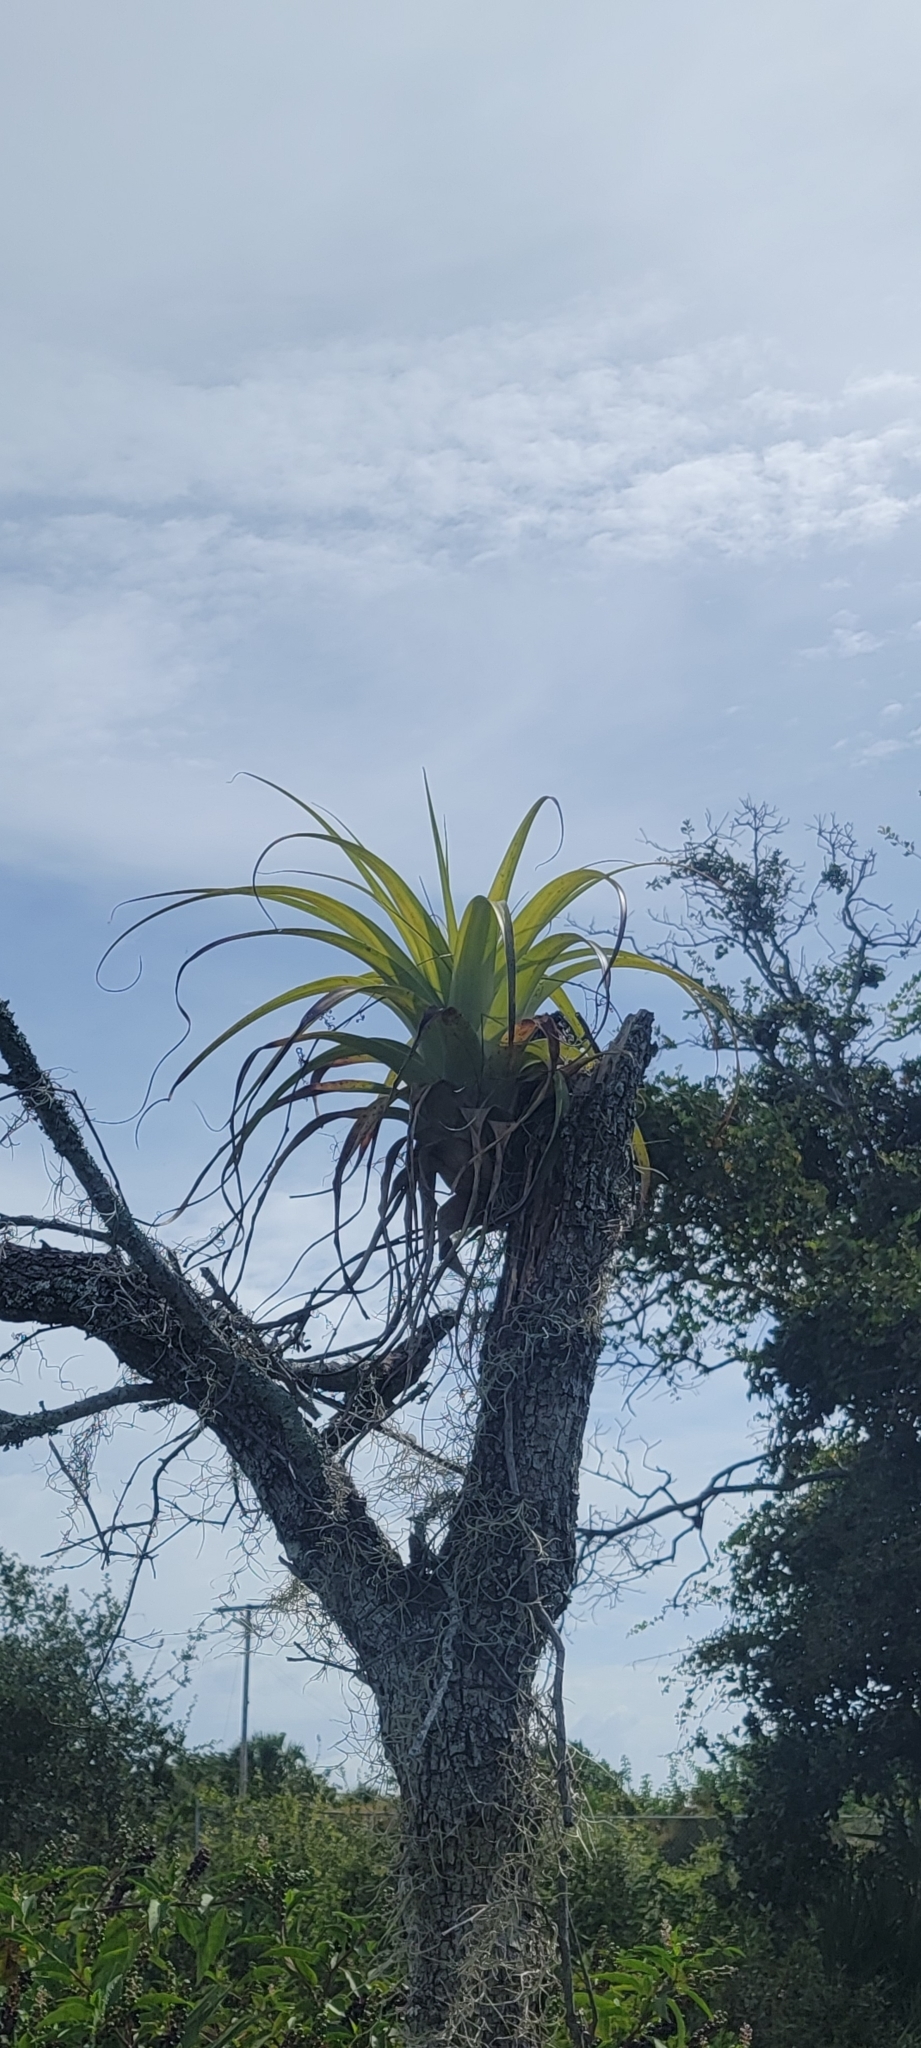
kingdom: Plantae
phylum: Tracheophyta
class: Liliopsida
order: Poales
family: Bromeliaceae
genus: Tillandsia
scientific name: Tillandsia utriculata
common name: Wild pine
